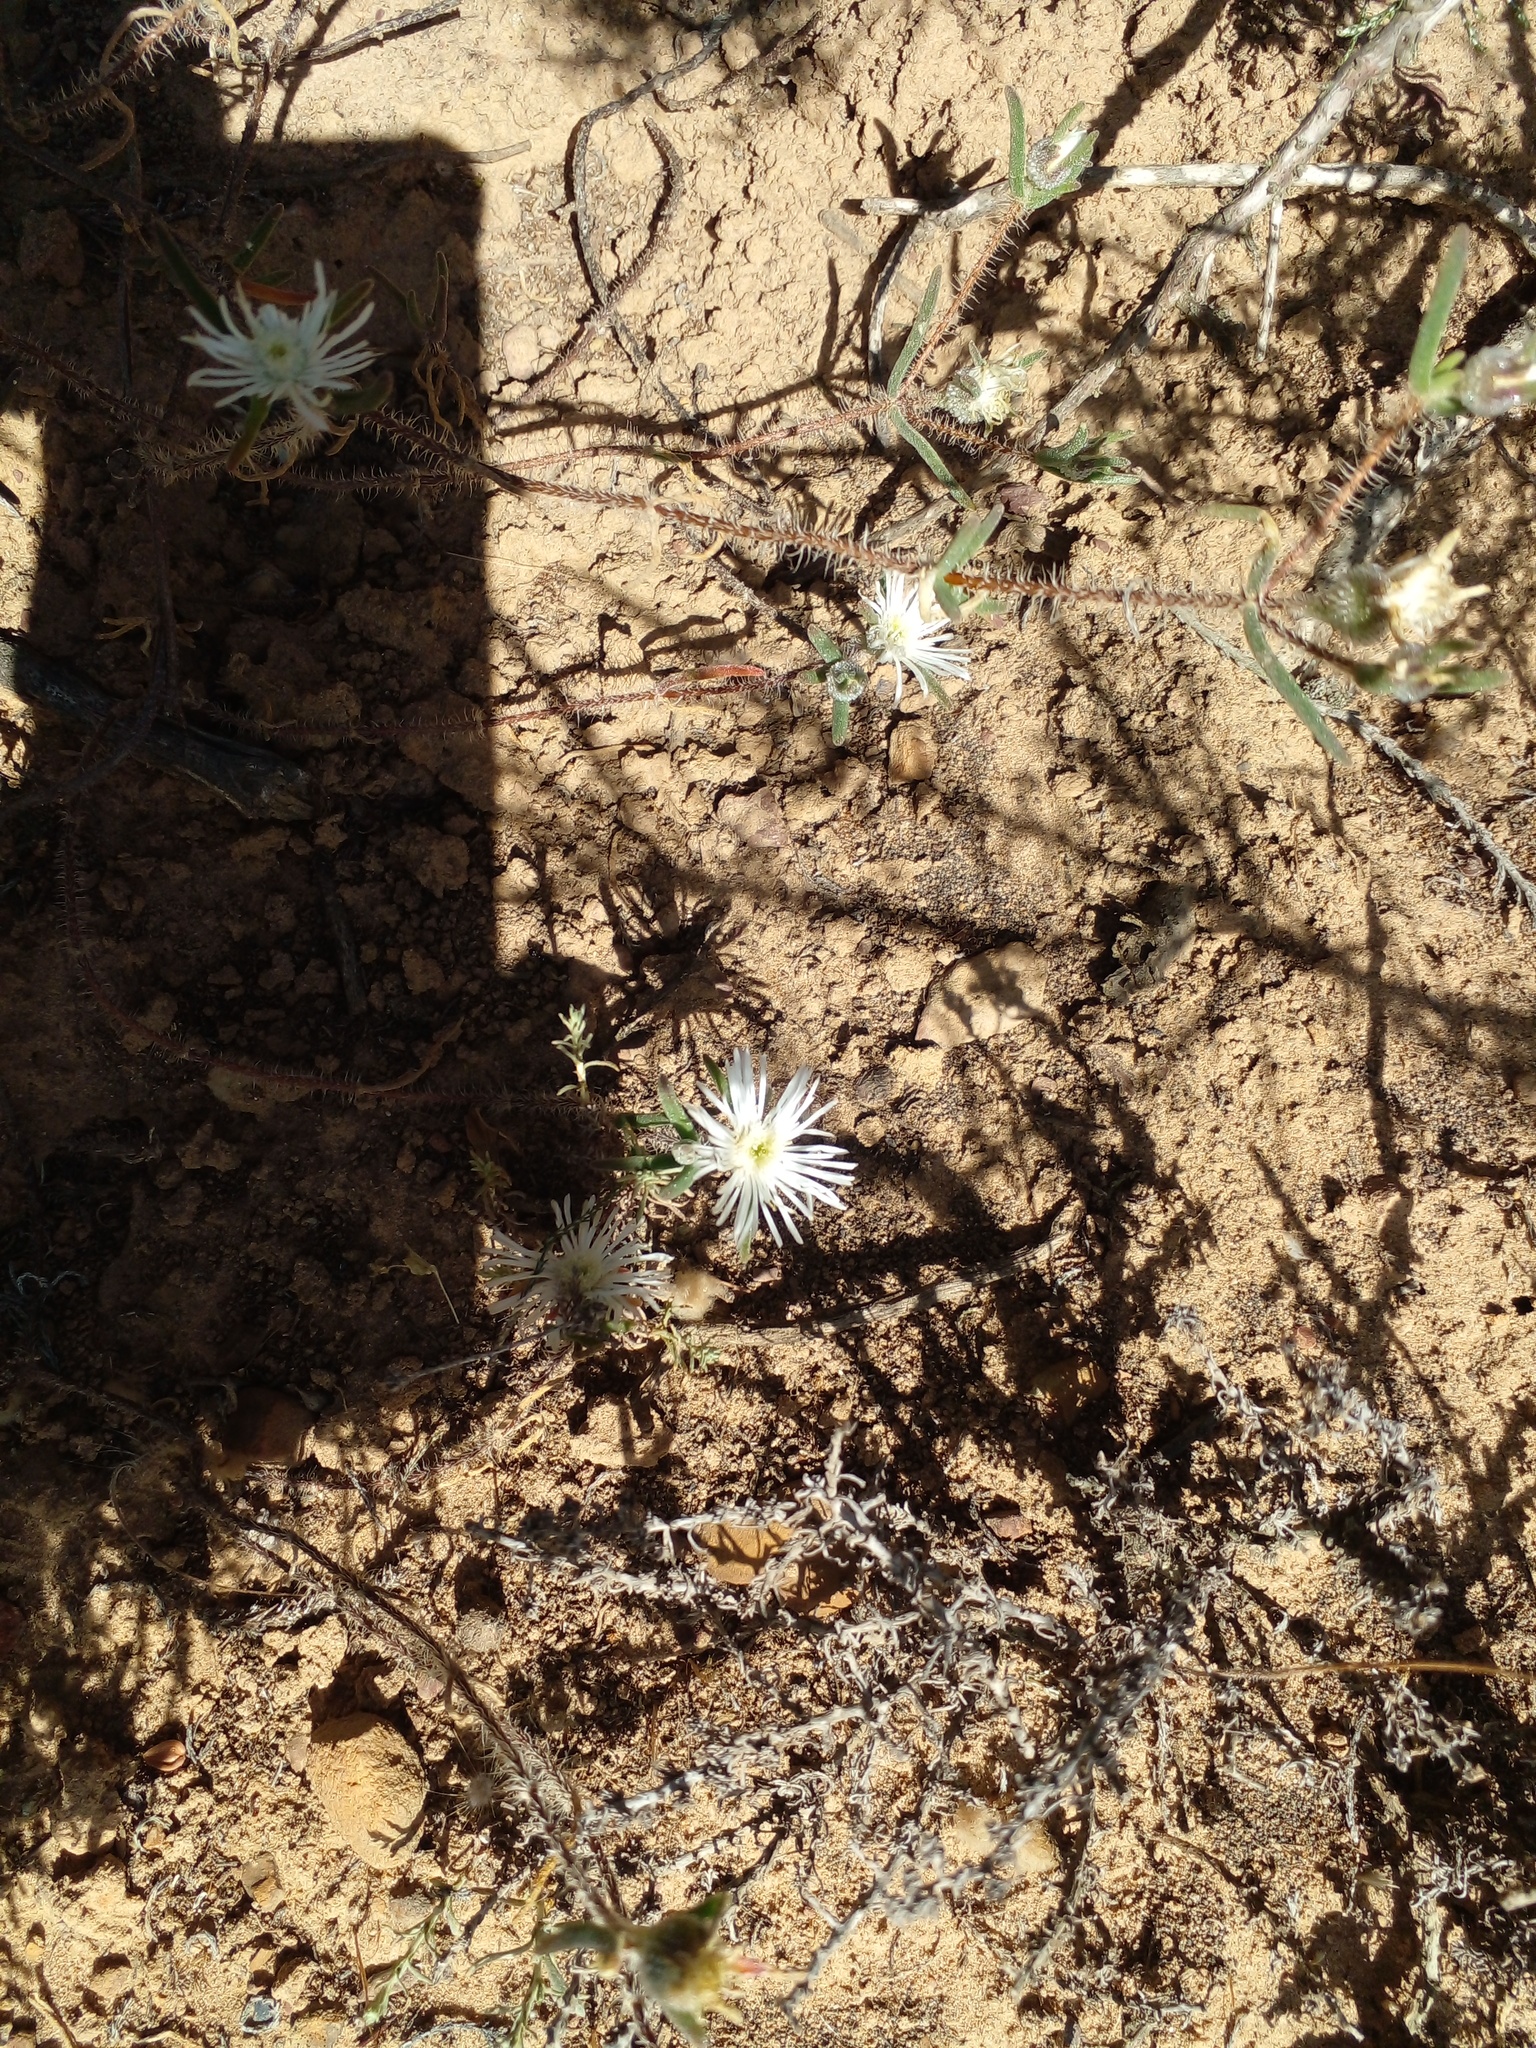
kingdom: Plantae
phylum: Tracheophyta
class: Magnoliopsida
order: Caryophyllales
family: Aizoaceae
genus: Drosanthemum
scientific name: Drosanthemum calycinum
